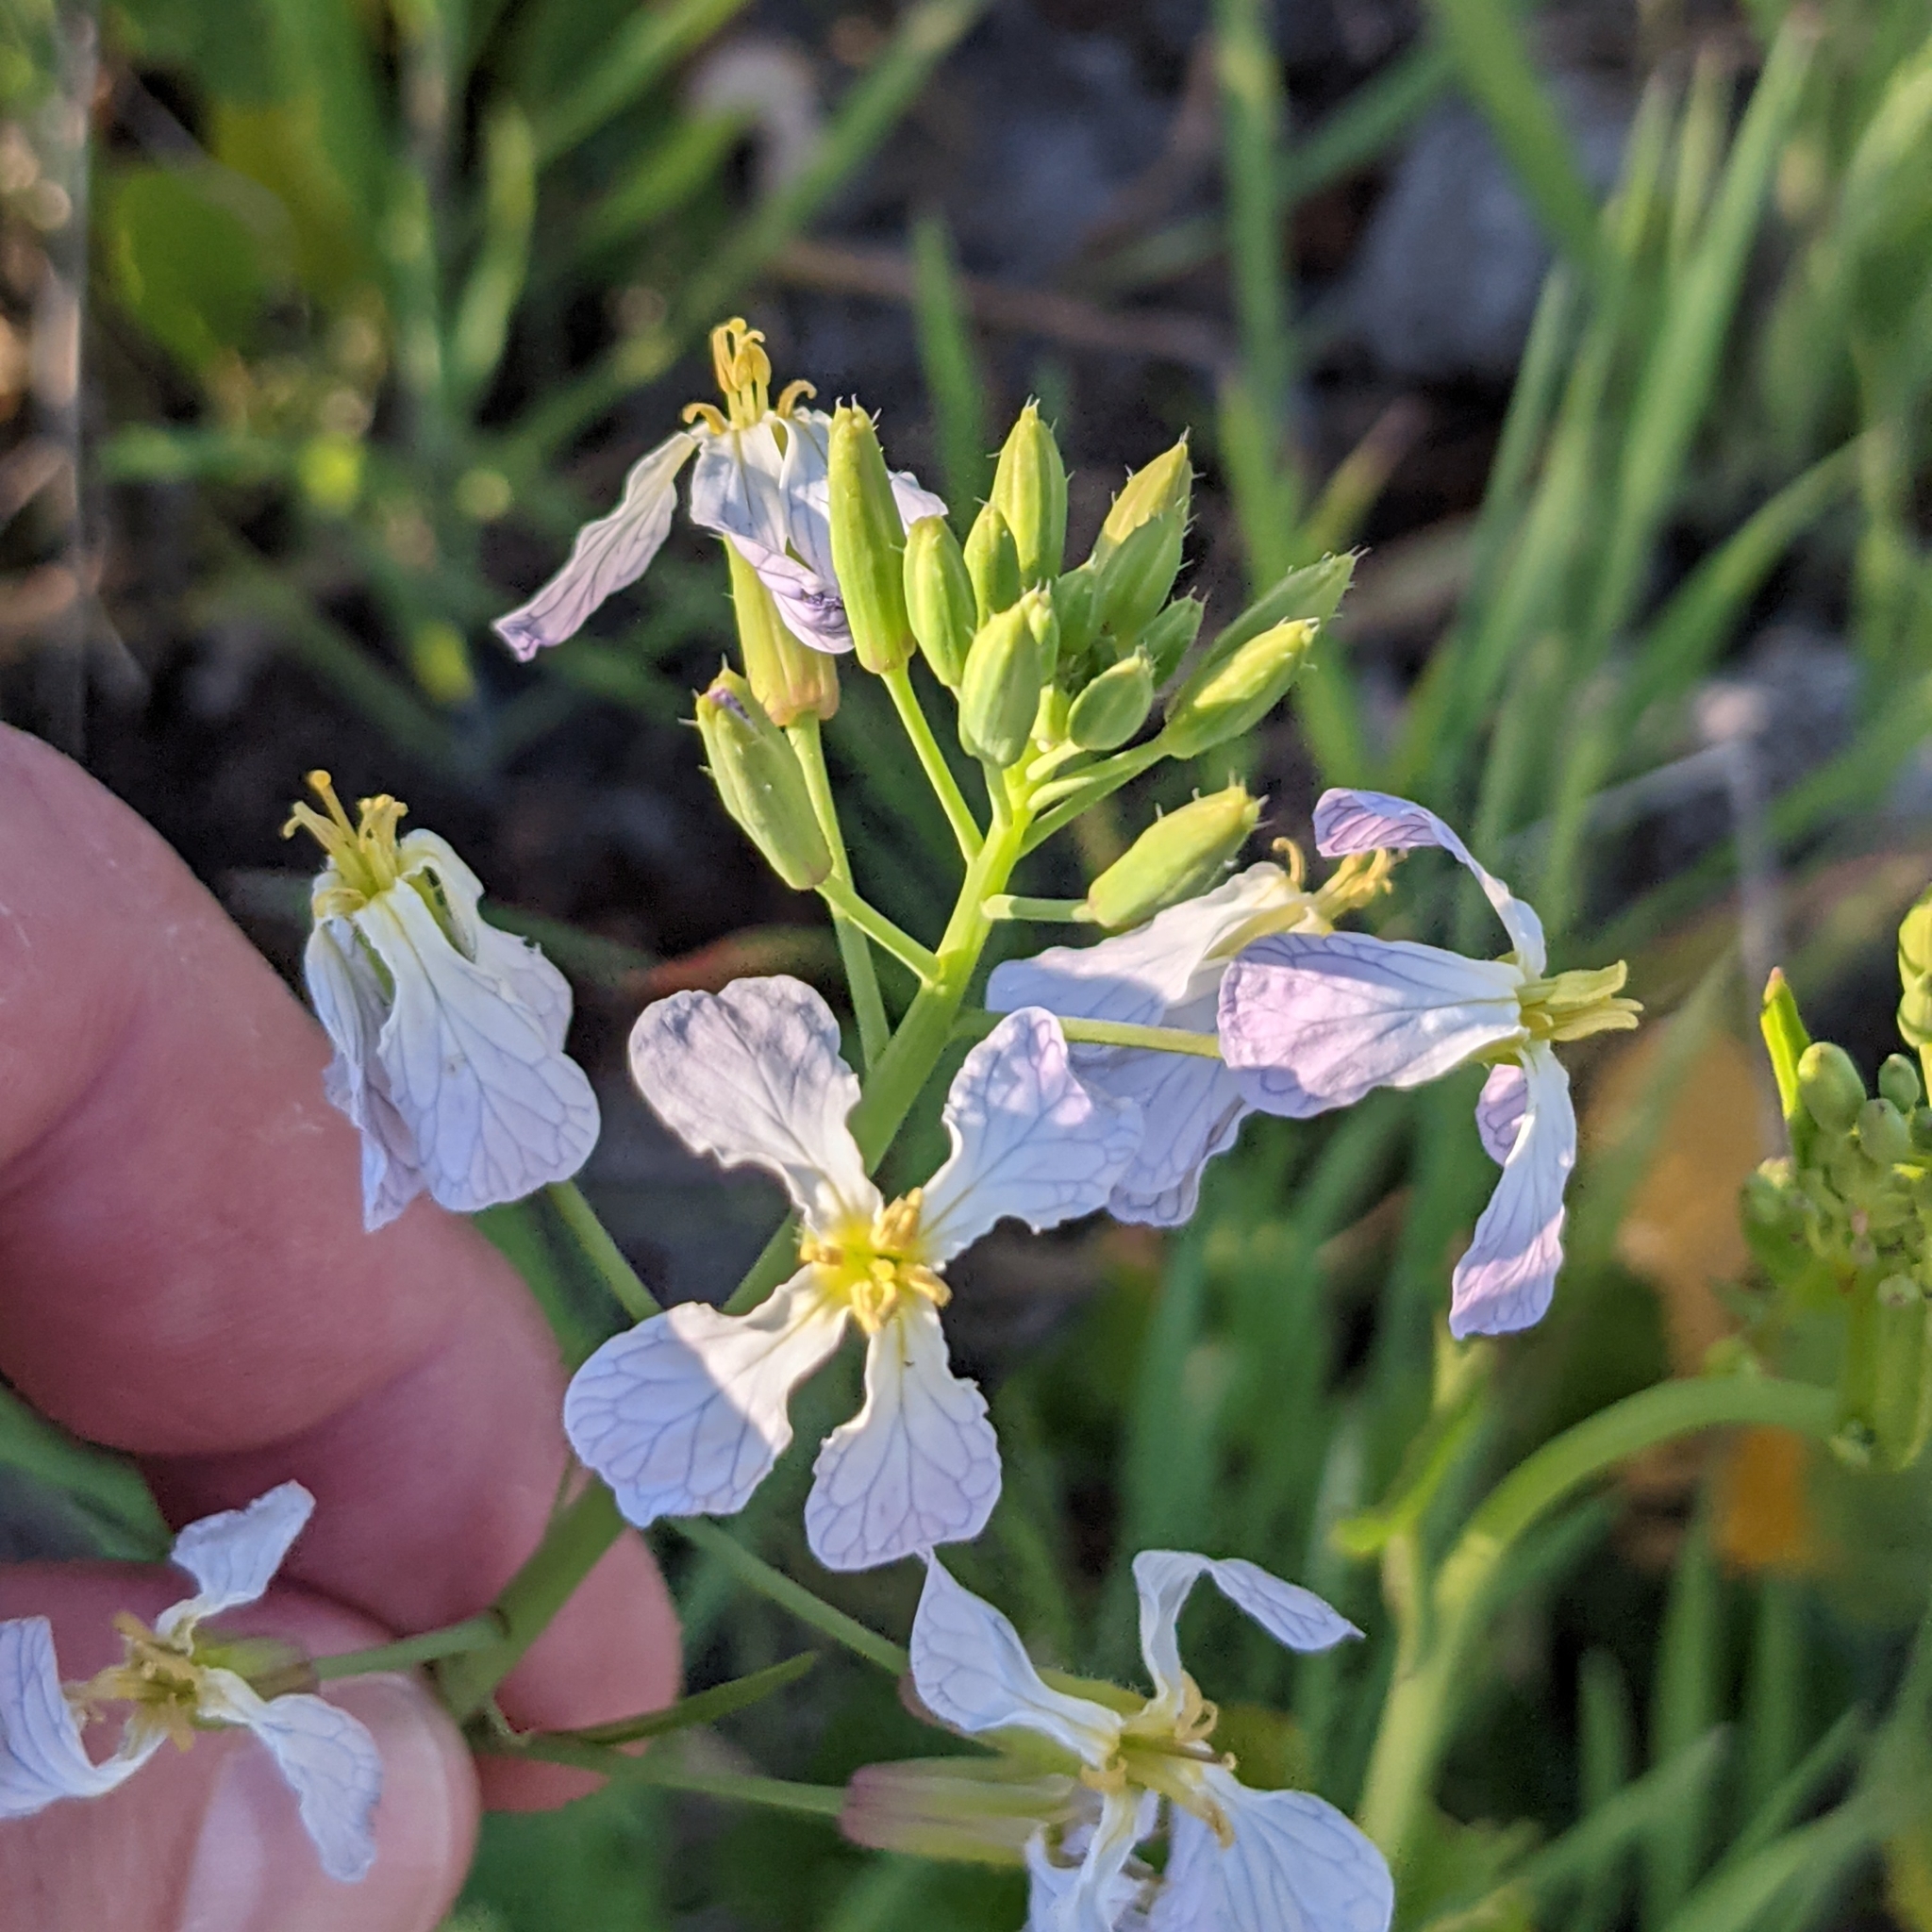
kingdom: Plantae
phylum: Tracheophyta
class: Magnoliopsida
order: Brassicales
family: Brassicaceae
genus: Raphanus
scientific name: Raphanus sativus
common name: Cultivated radish
